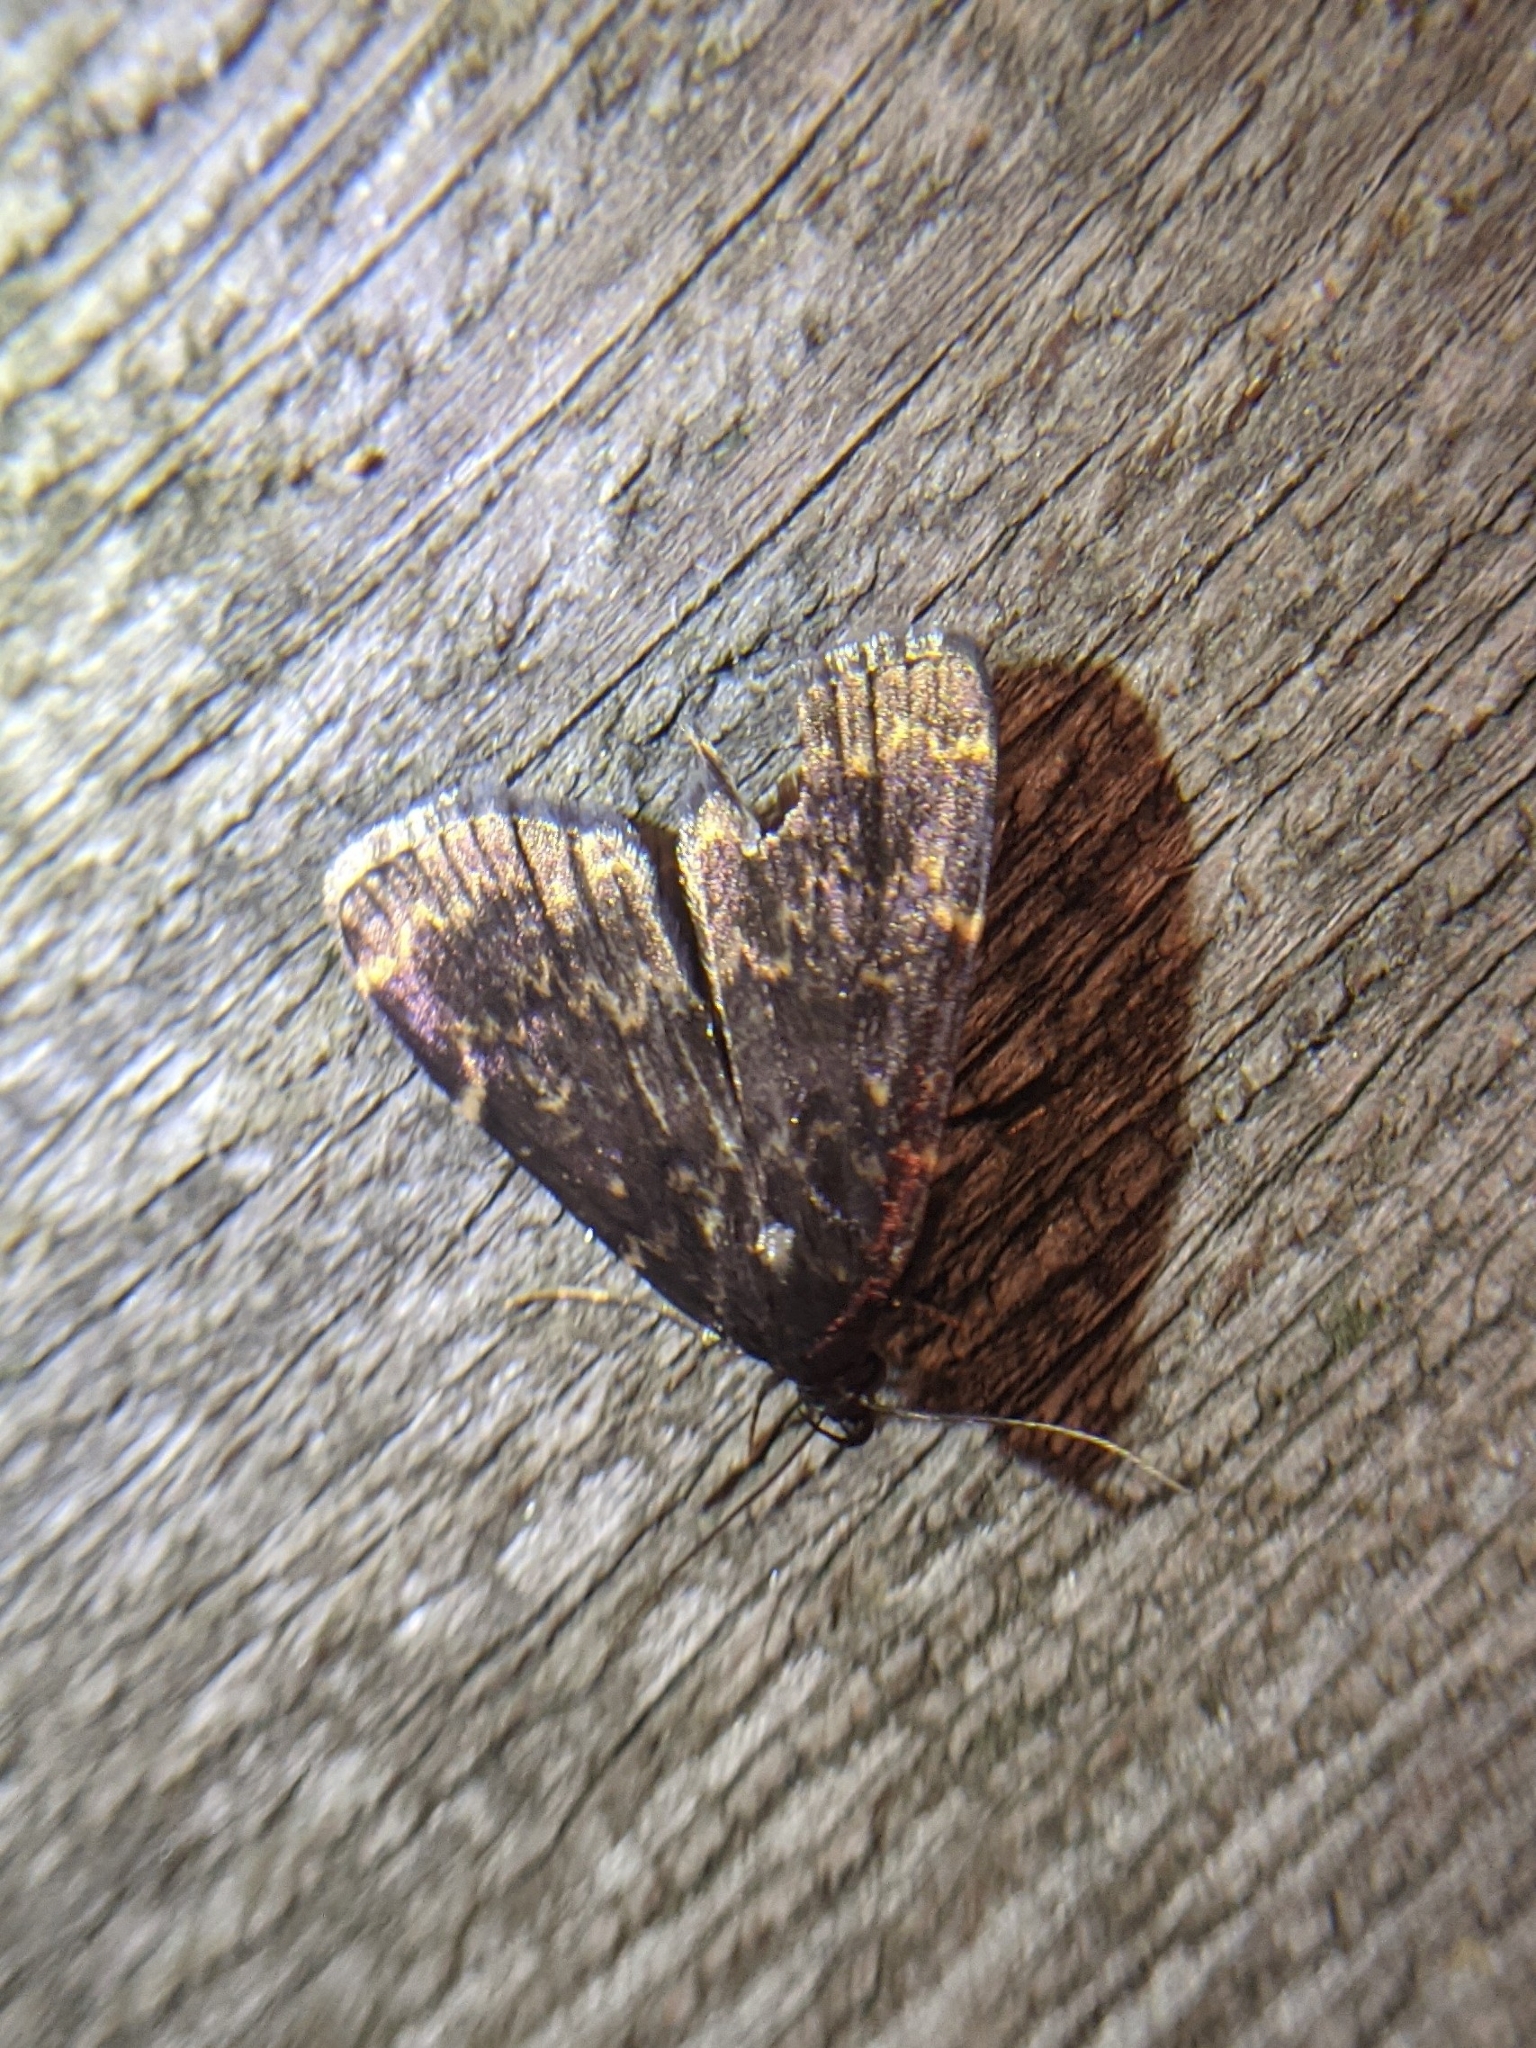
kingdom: Animalia
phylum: Arthropoda
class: Insecta
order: Lepidoptera
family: Erebidae
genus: Idia
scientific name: Idia lubricalis
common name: Twin-striped tabby
